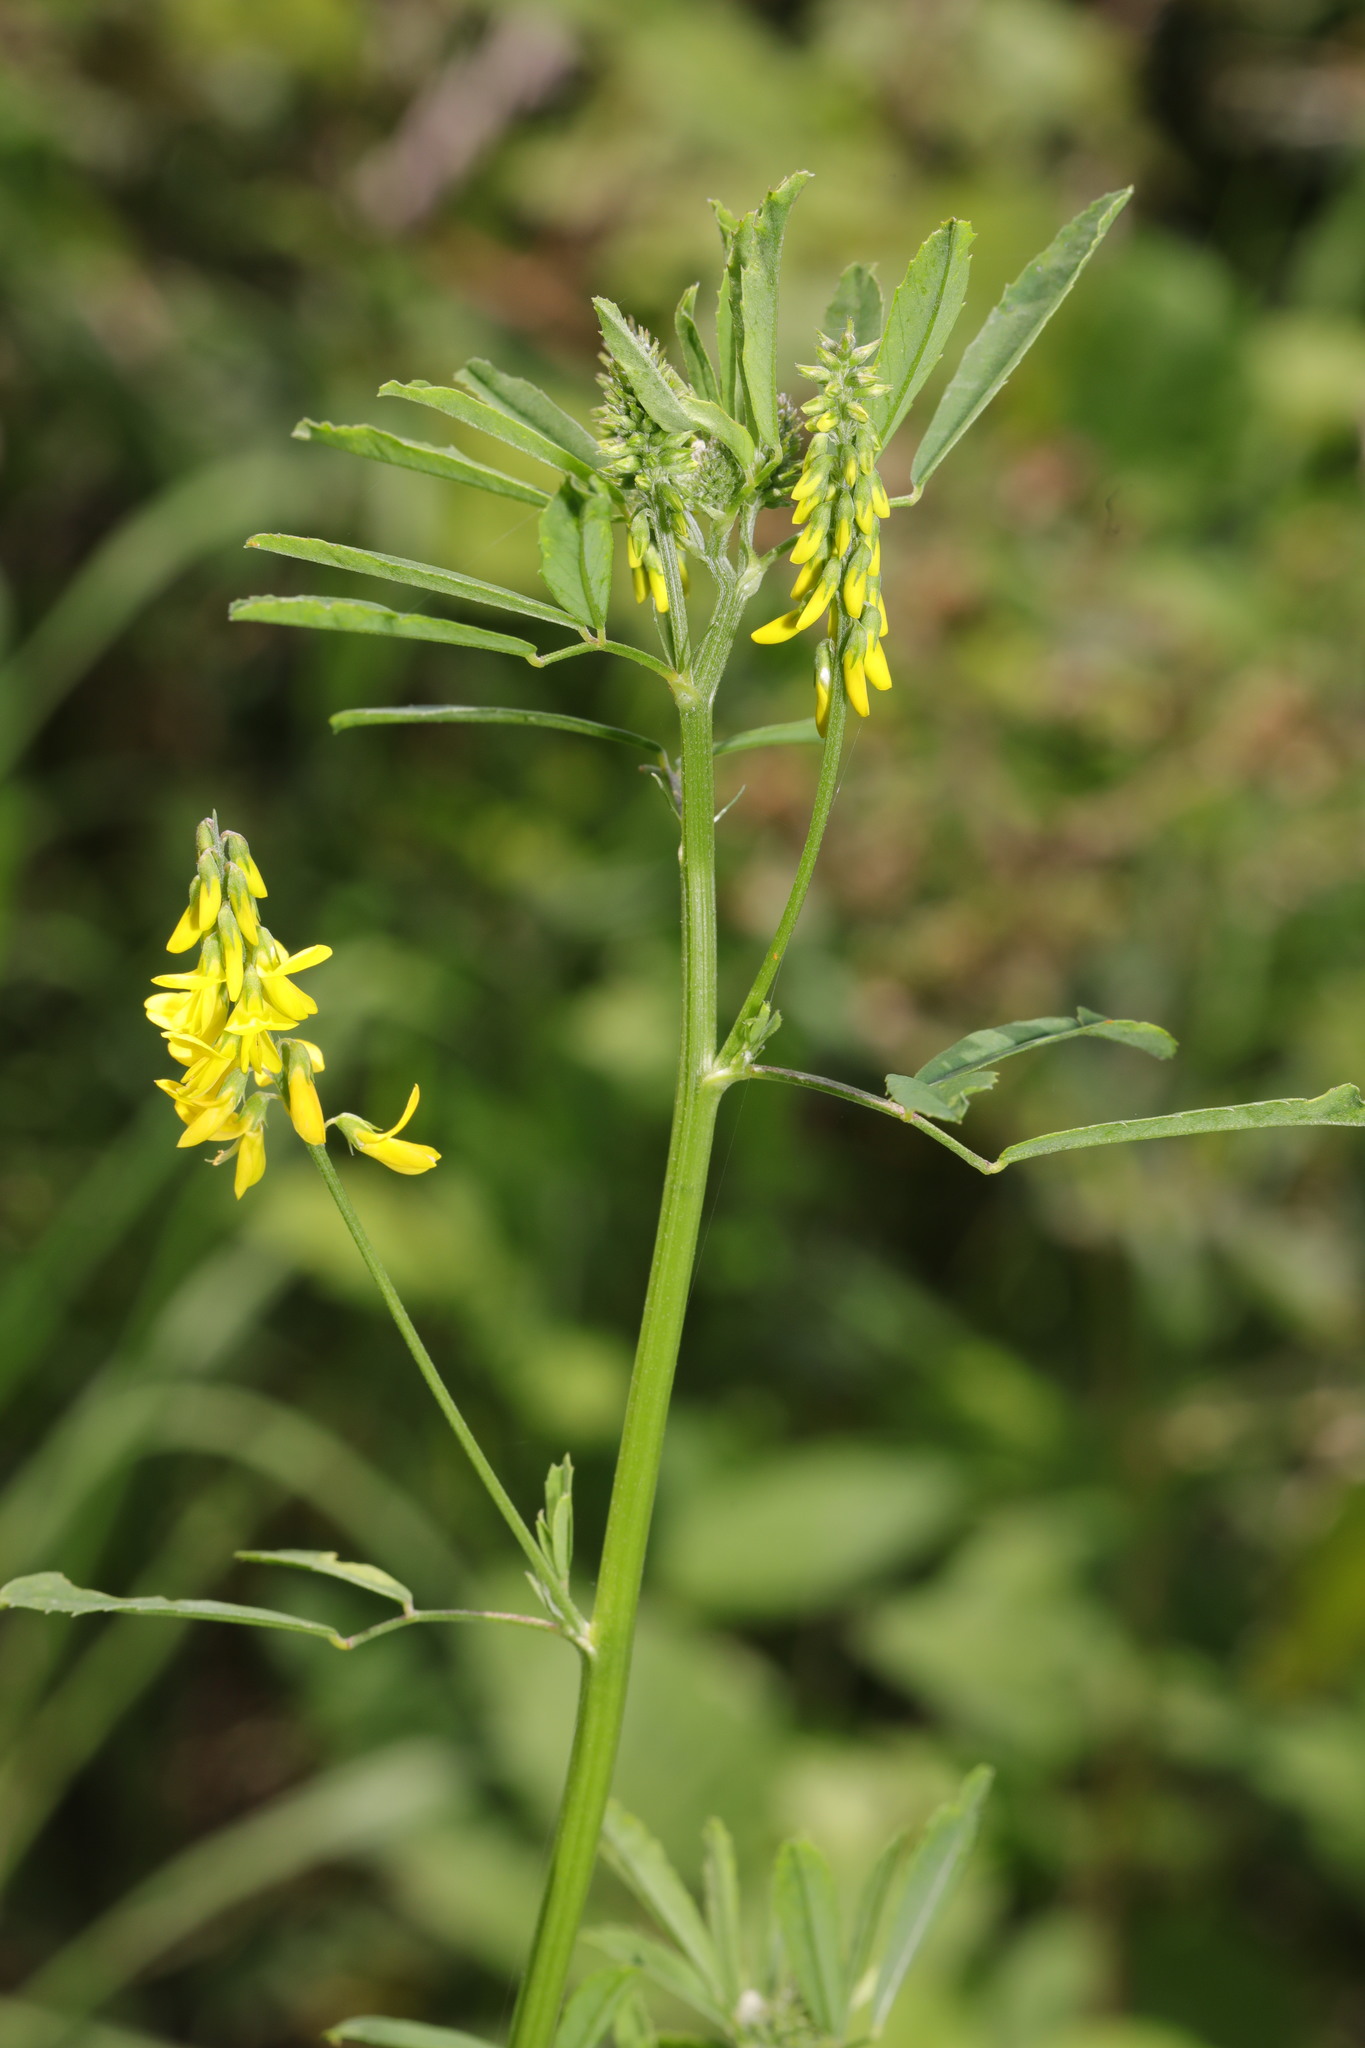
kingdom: Plantae
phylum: Tracheophyta
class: Magnoliopsida
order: Fabales
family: Fabaceae
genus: Melilotus
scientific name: Melilotus officinalis
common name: Sweetclover
